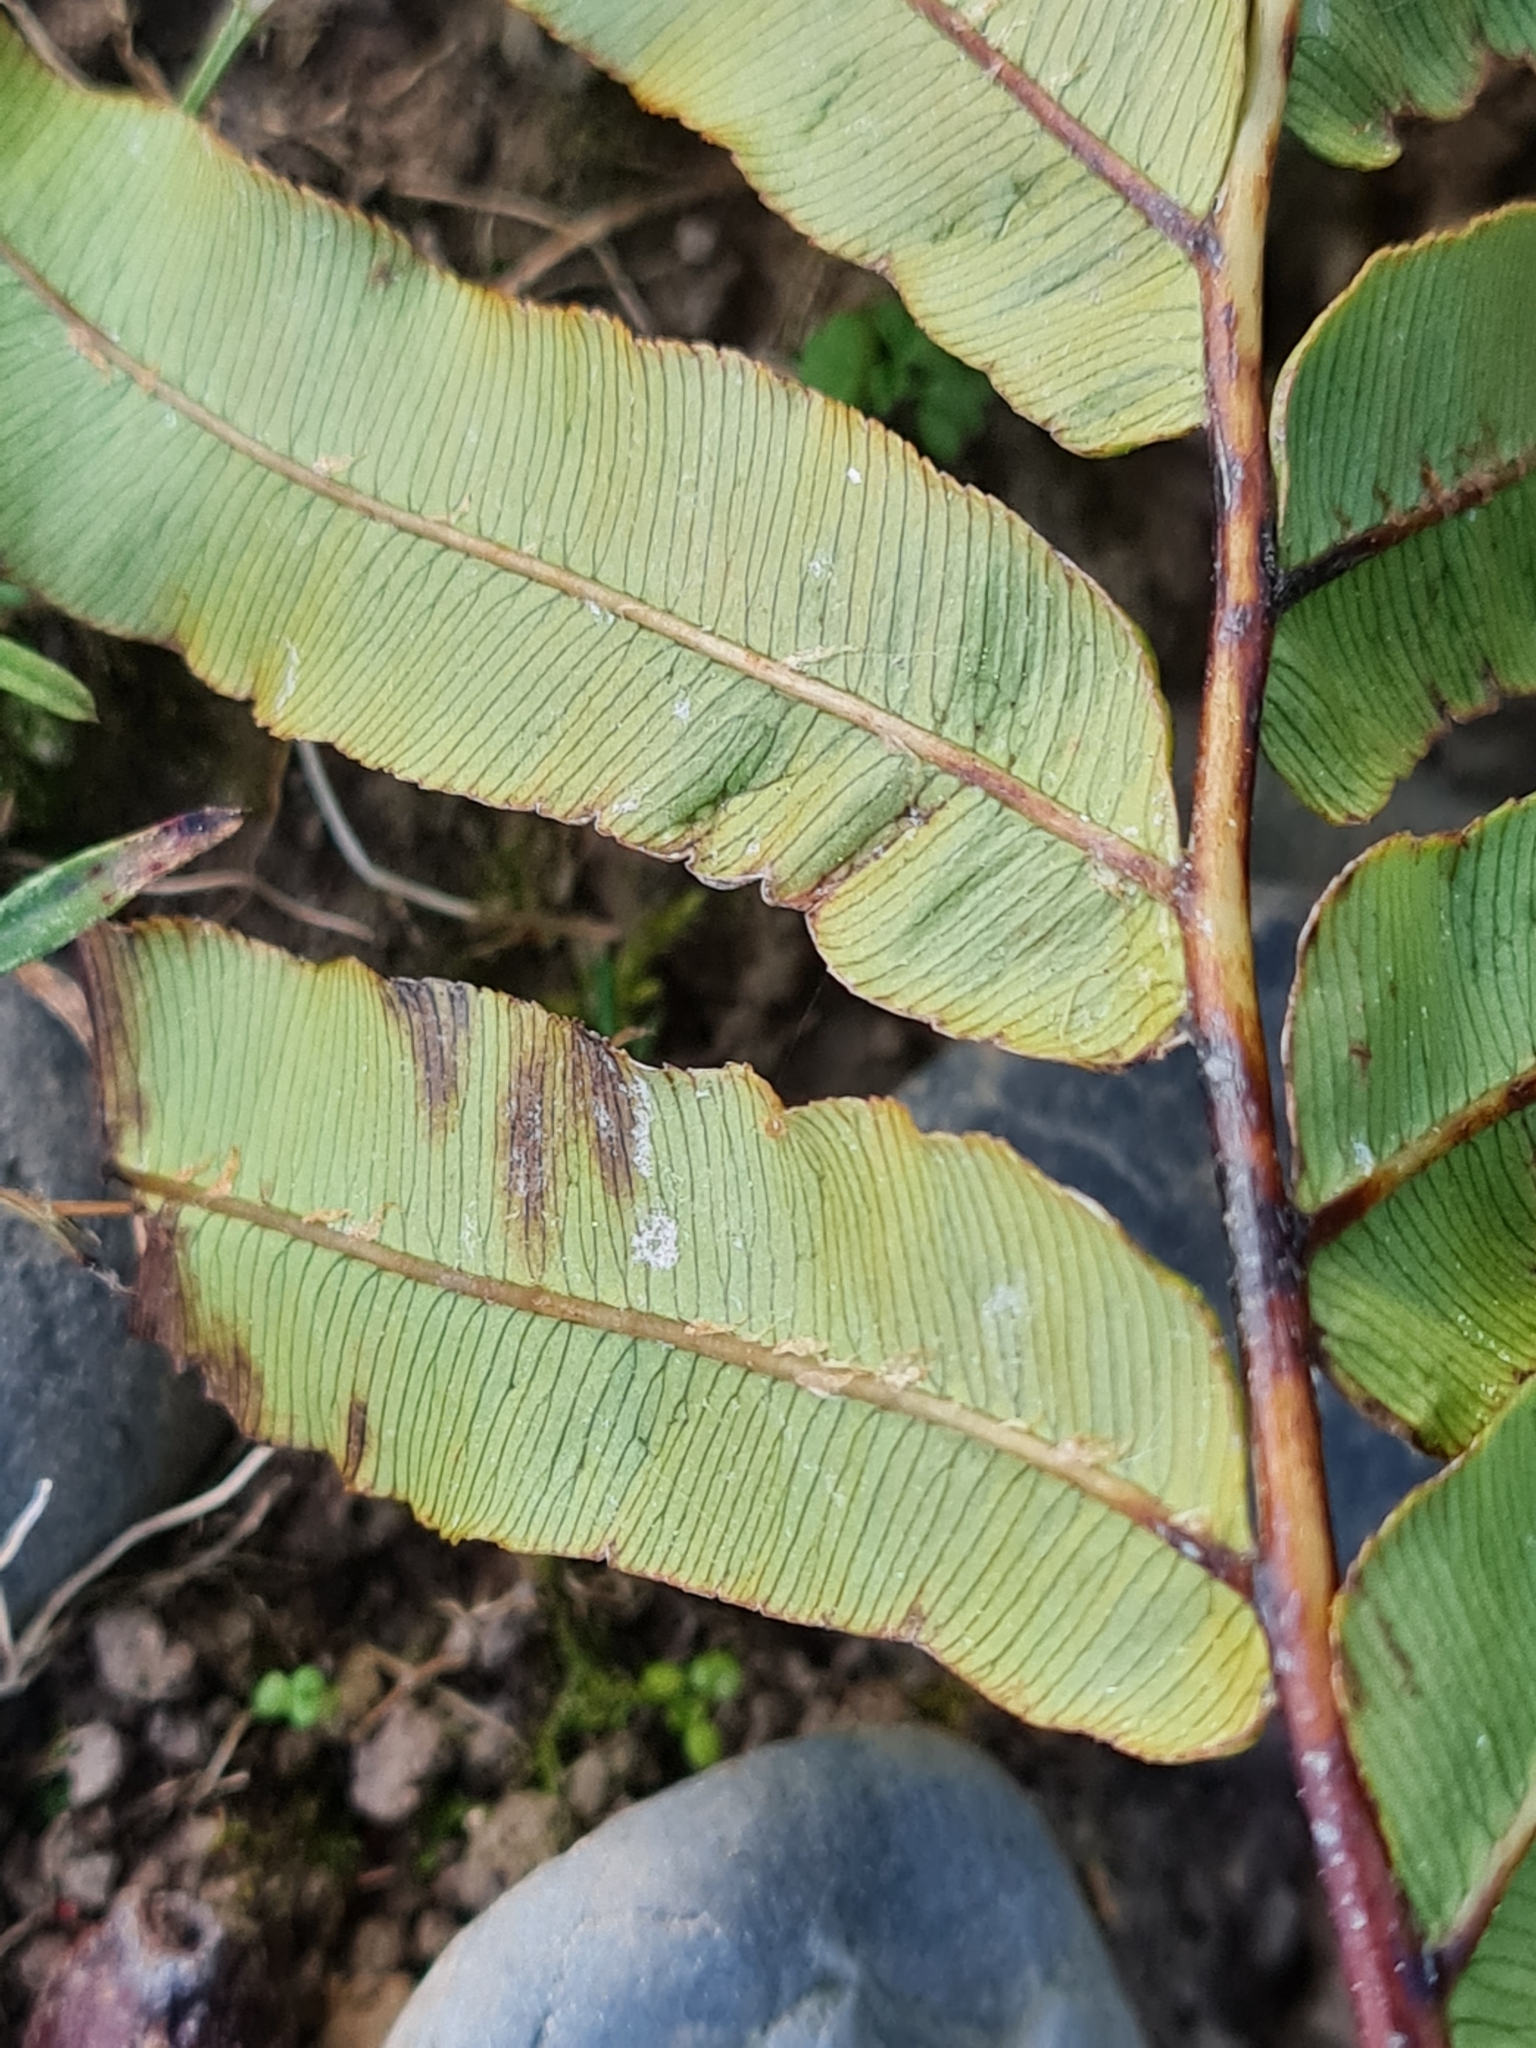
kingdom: Plantae
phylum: Tracheophyta
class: Polypodiopsida
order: Polypodiales
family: Blechnaceae
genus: Parablechnum
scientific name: Parablechnum minus
